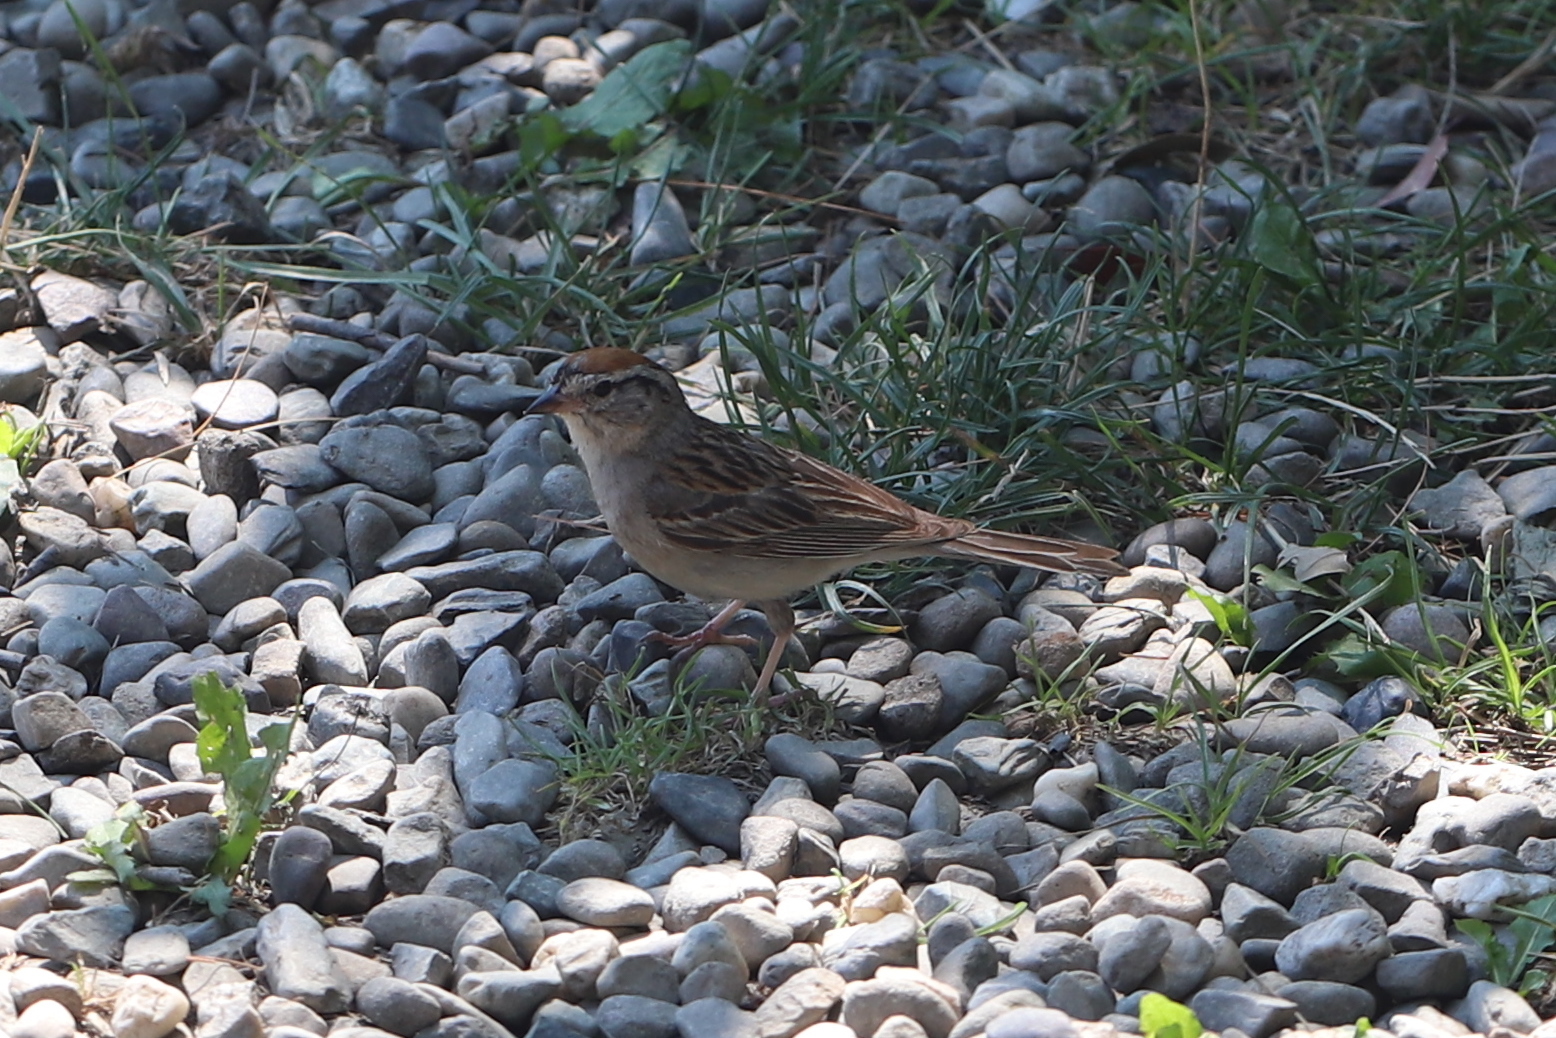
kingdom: Animalia
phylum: Chordata
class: Aves
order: Passeriformes
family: Passerellidae
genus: Spizella
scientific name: Spizella passerina
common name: Chipping sparrow
